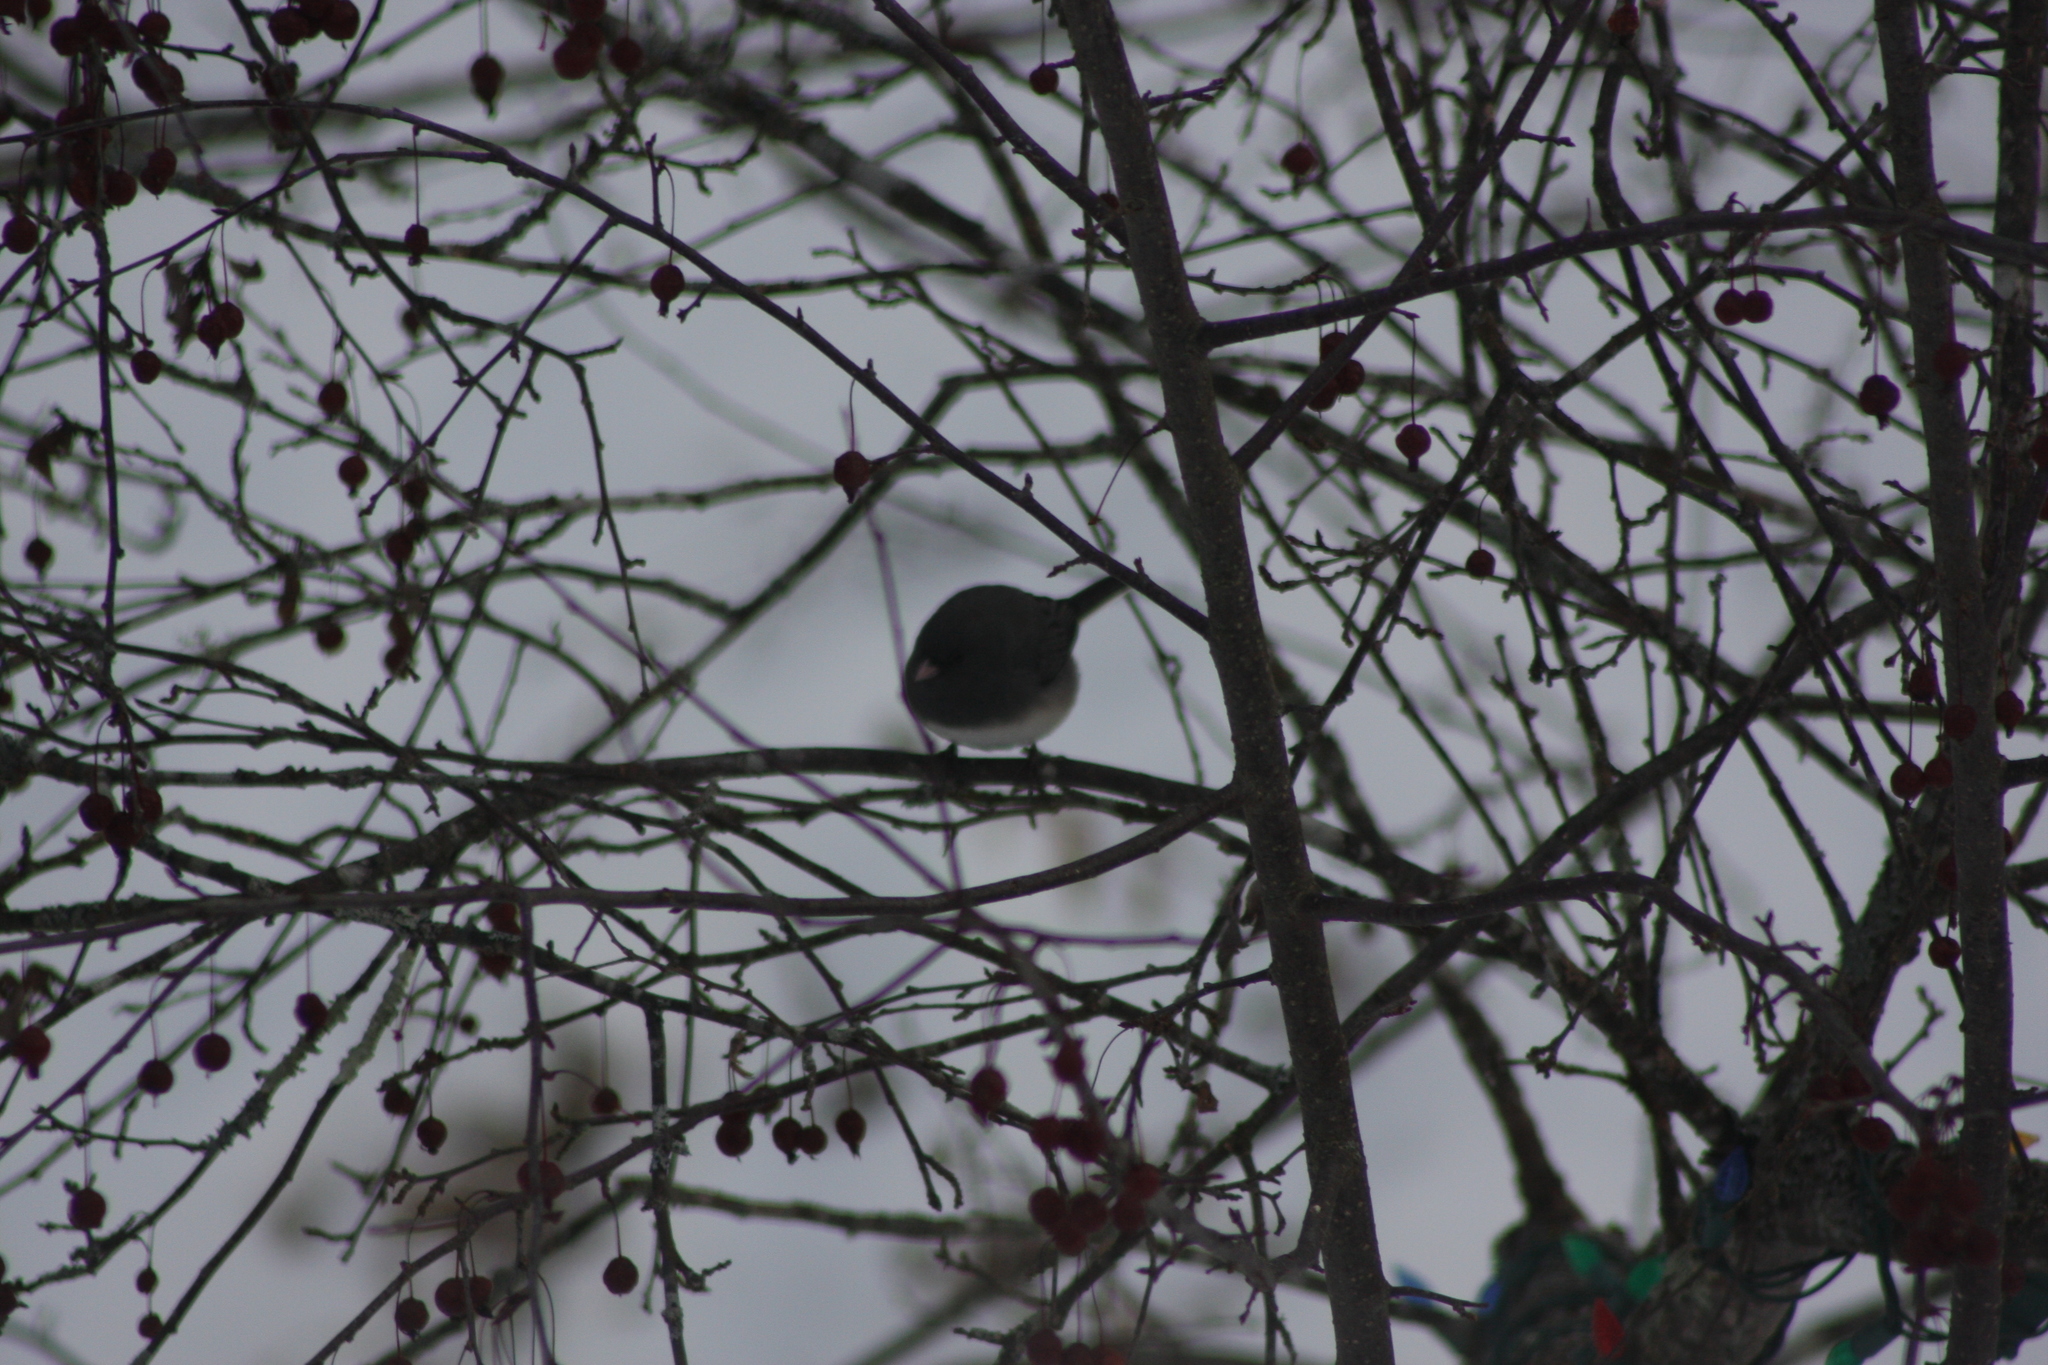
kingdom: Animalia
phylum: Chordata
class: Aves
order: Passeriformes
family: Passerellidae
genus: Junco
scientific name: Junco hyemalis
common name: Dark-eyed junco
